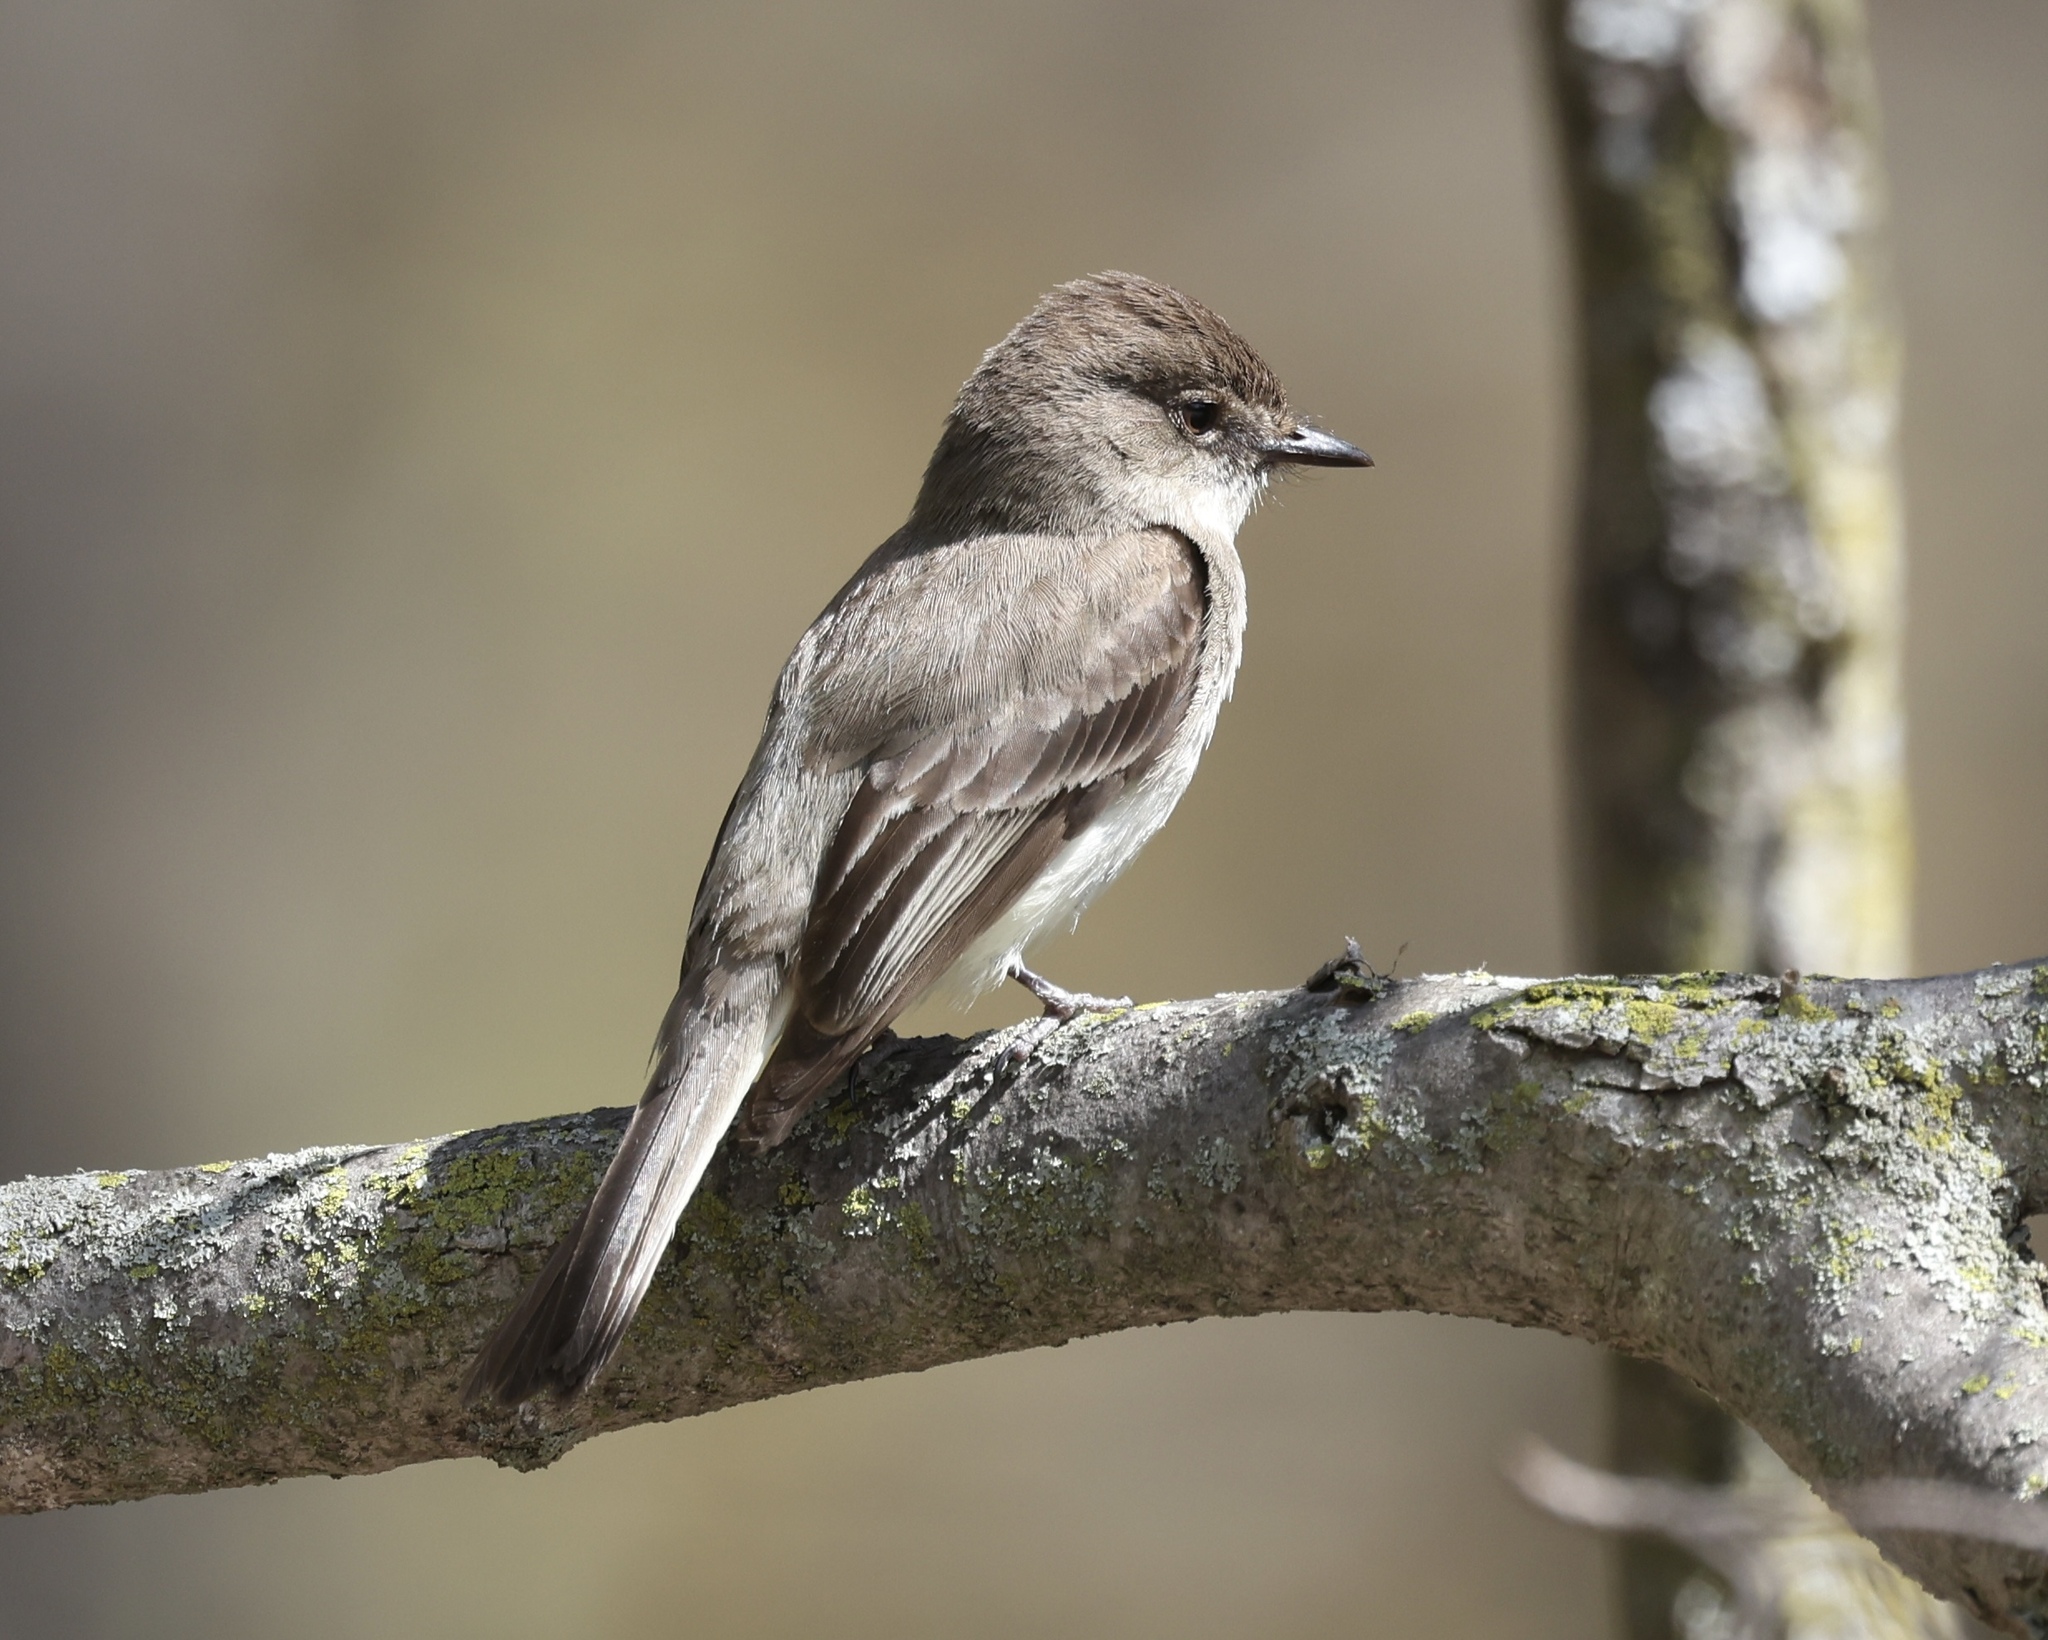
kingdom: Animalia
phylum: Chordata
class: Aves
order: Passeriformes
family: Tyrannidae
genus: Sayornis
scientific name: Sayornis phoebe
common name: Eastern phoebe
